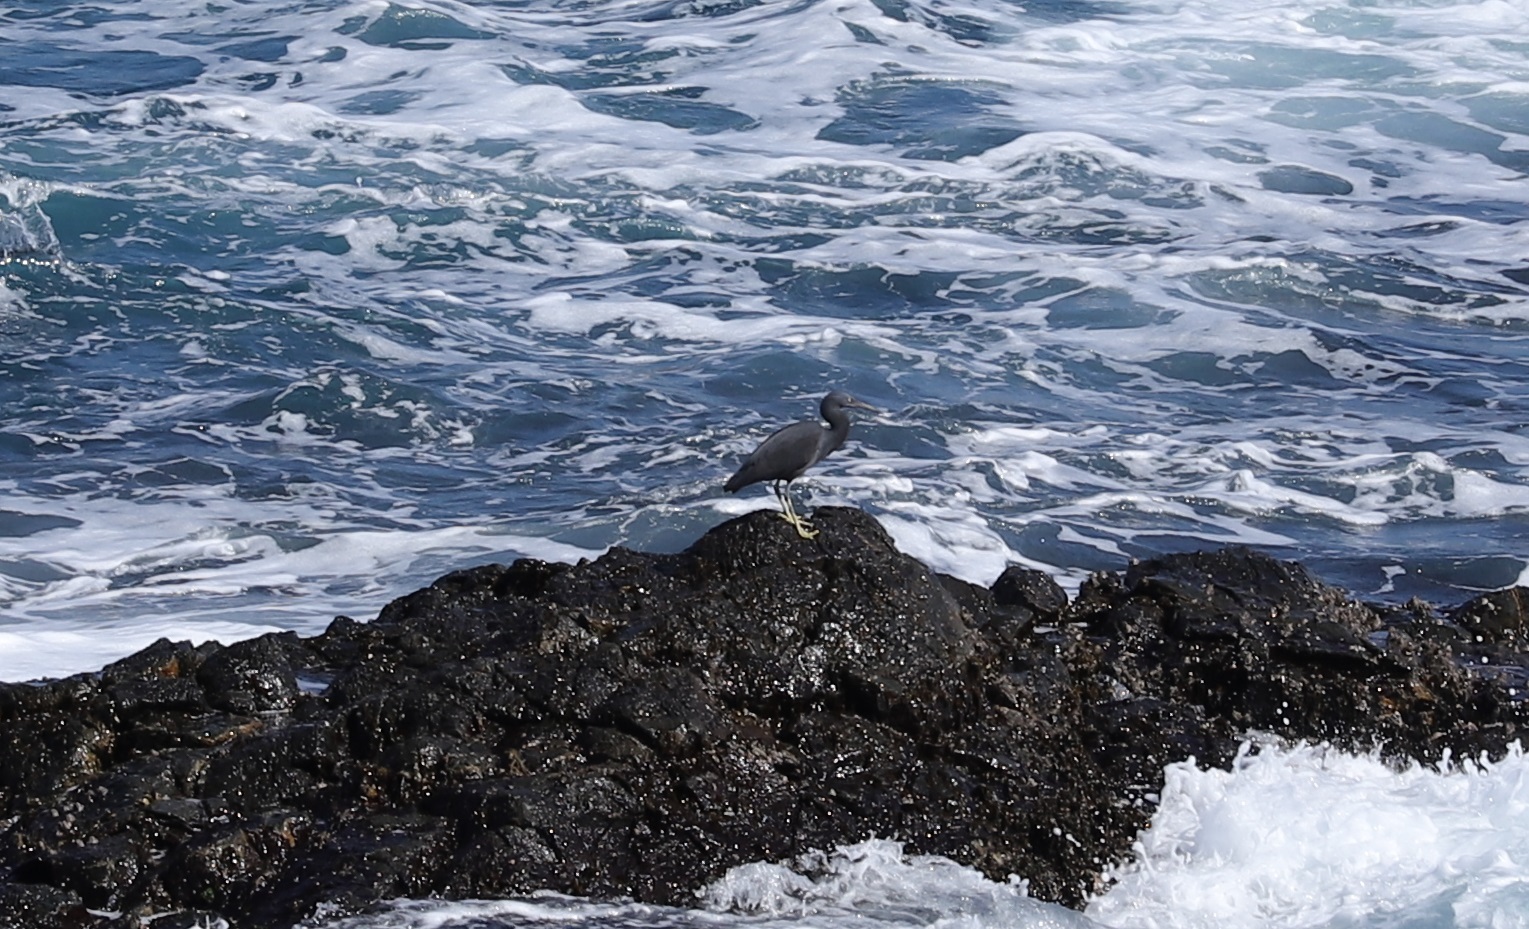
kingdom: Animalia
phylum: Chordata
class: Aves
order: Pelecaniformes
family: Ardeidae
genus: Egretta
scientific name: Egretta sacra
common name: Pacific reef heron
